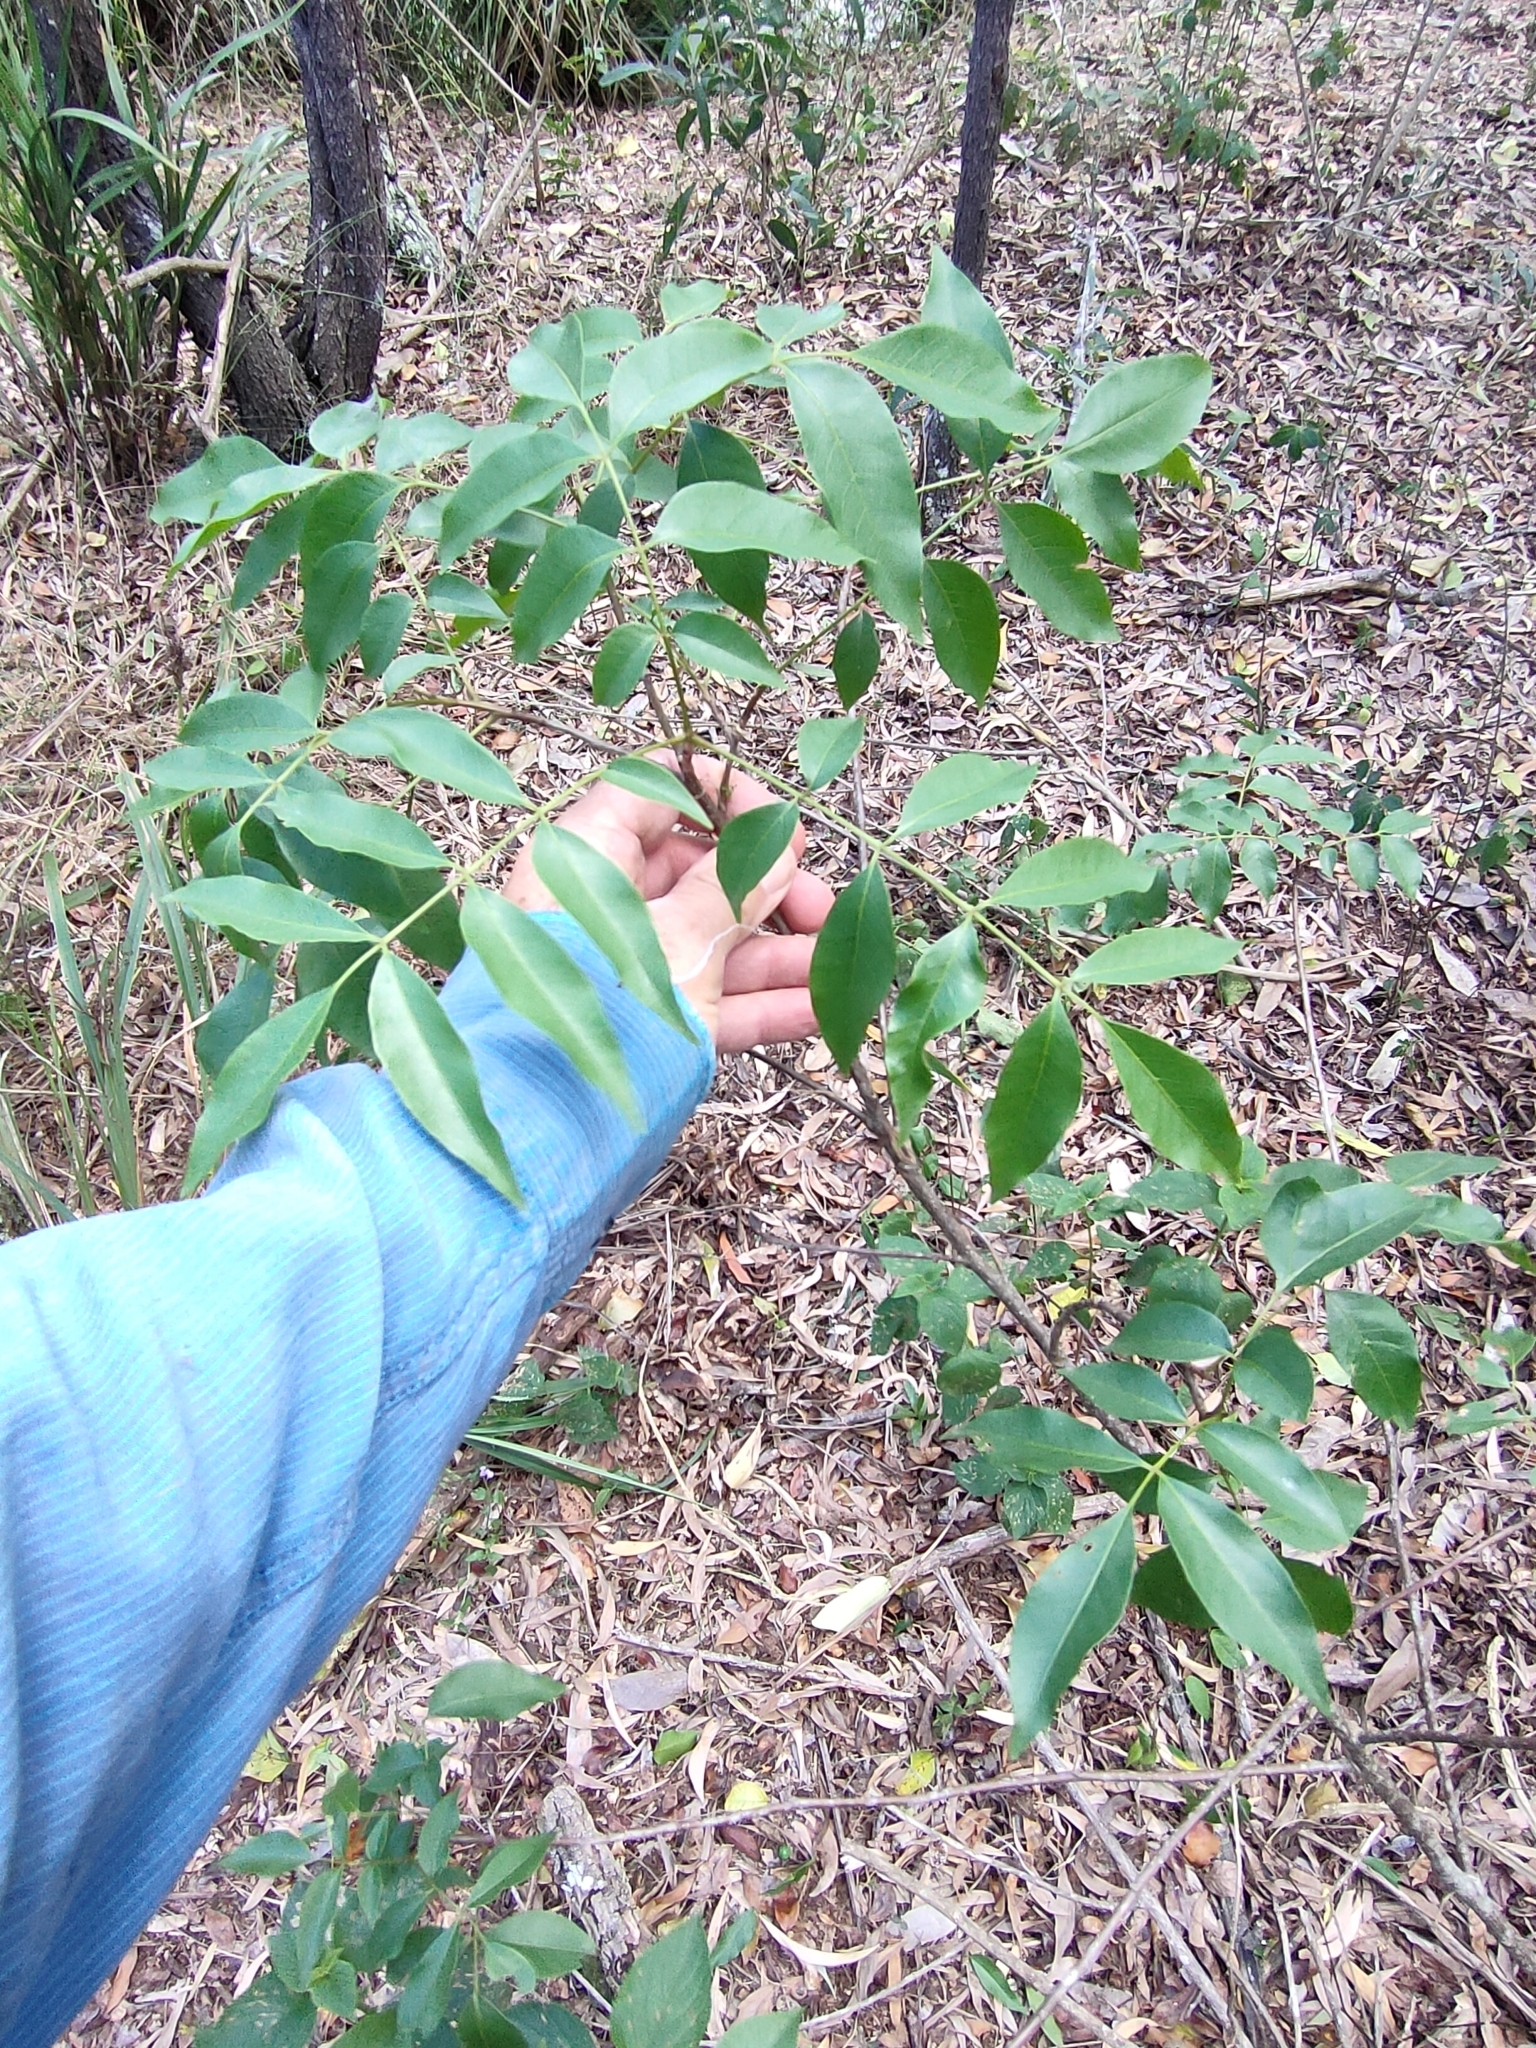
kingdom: Plantae
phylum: Tracheophyta
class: Magnoliopsida
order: Sapindales
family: Anacardiaceae
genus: Pleiogynium
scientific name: Pleiogynium timoriense
